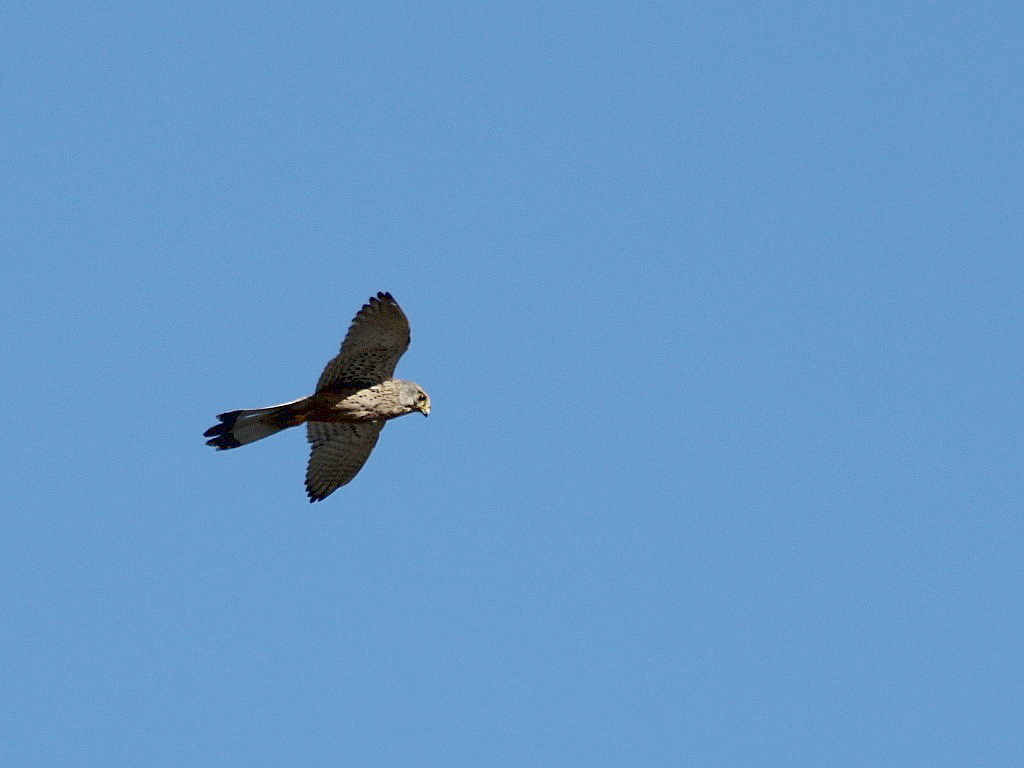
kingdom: Animalia
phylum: Chordata
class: Aves
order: Falconiformes
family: Falconidae
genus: Falco
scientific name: Falco tinnunculus
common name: Common kestrel
